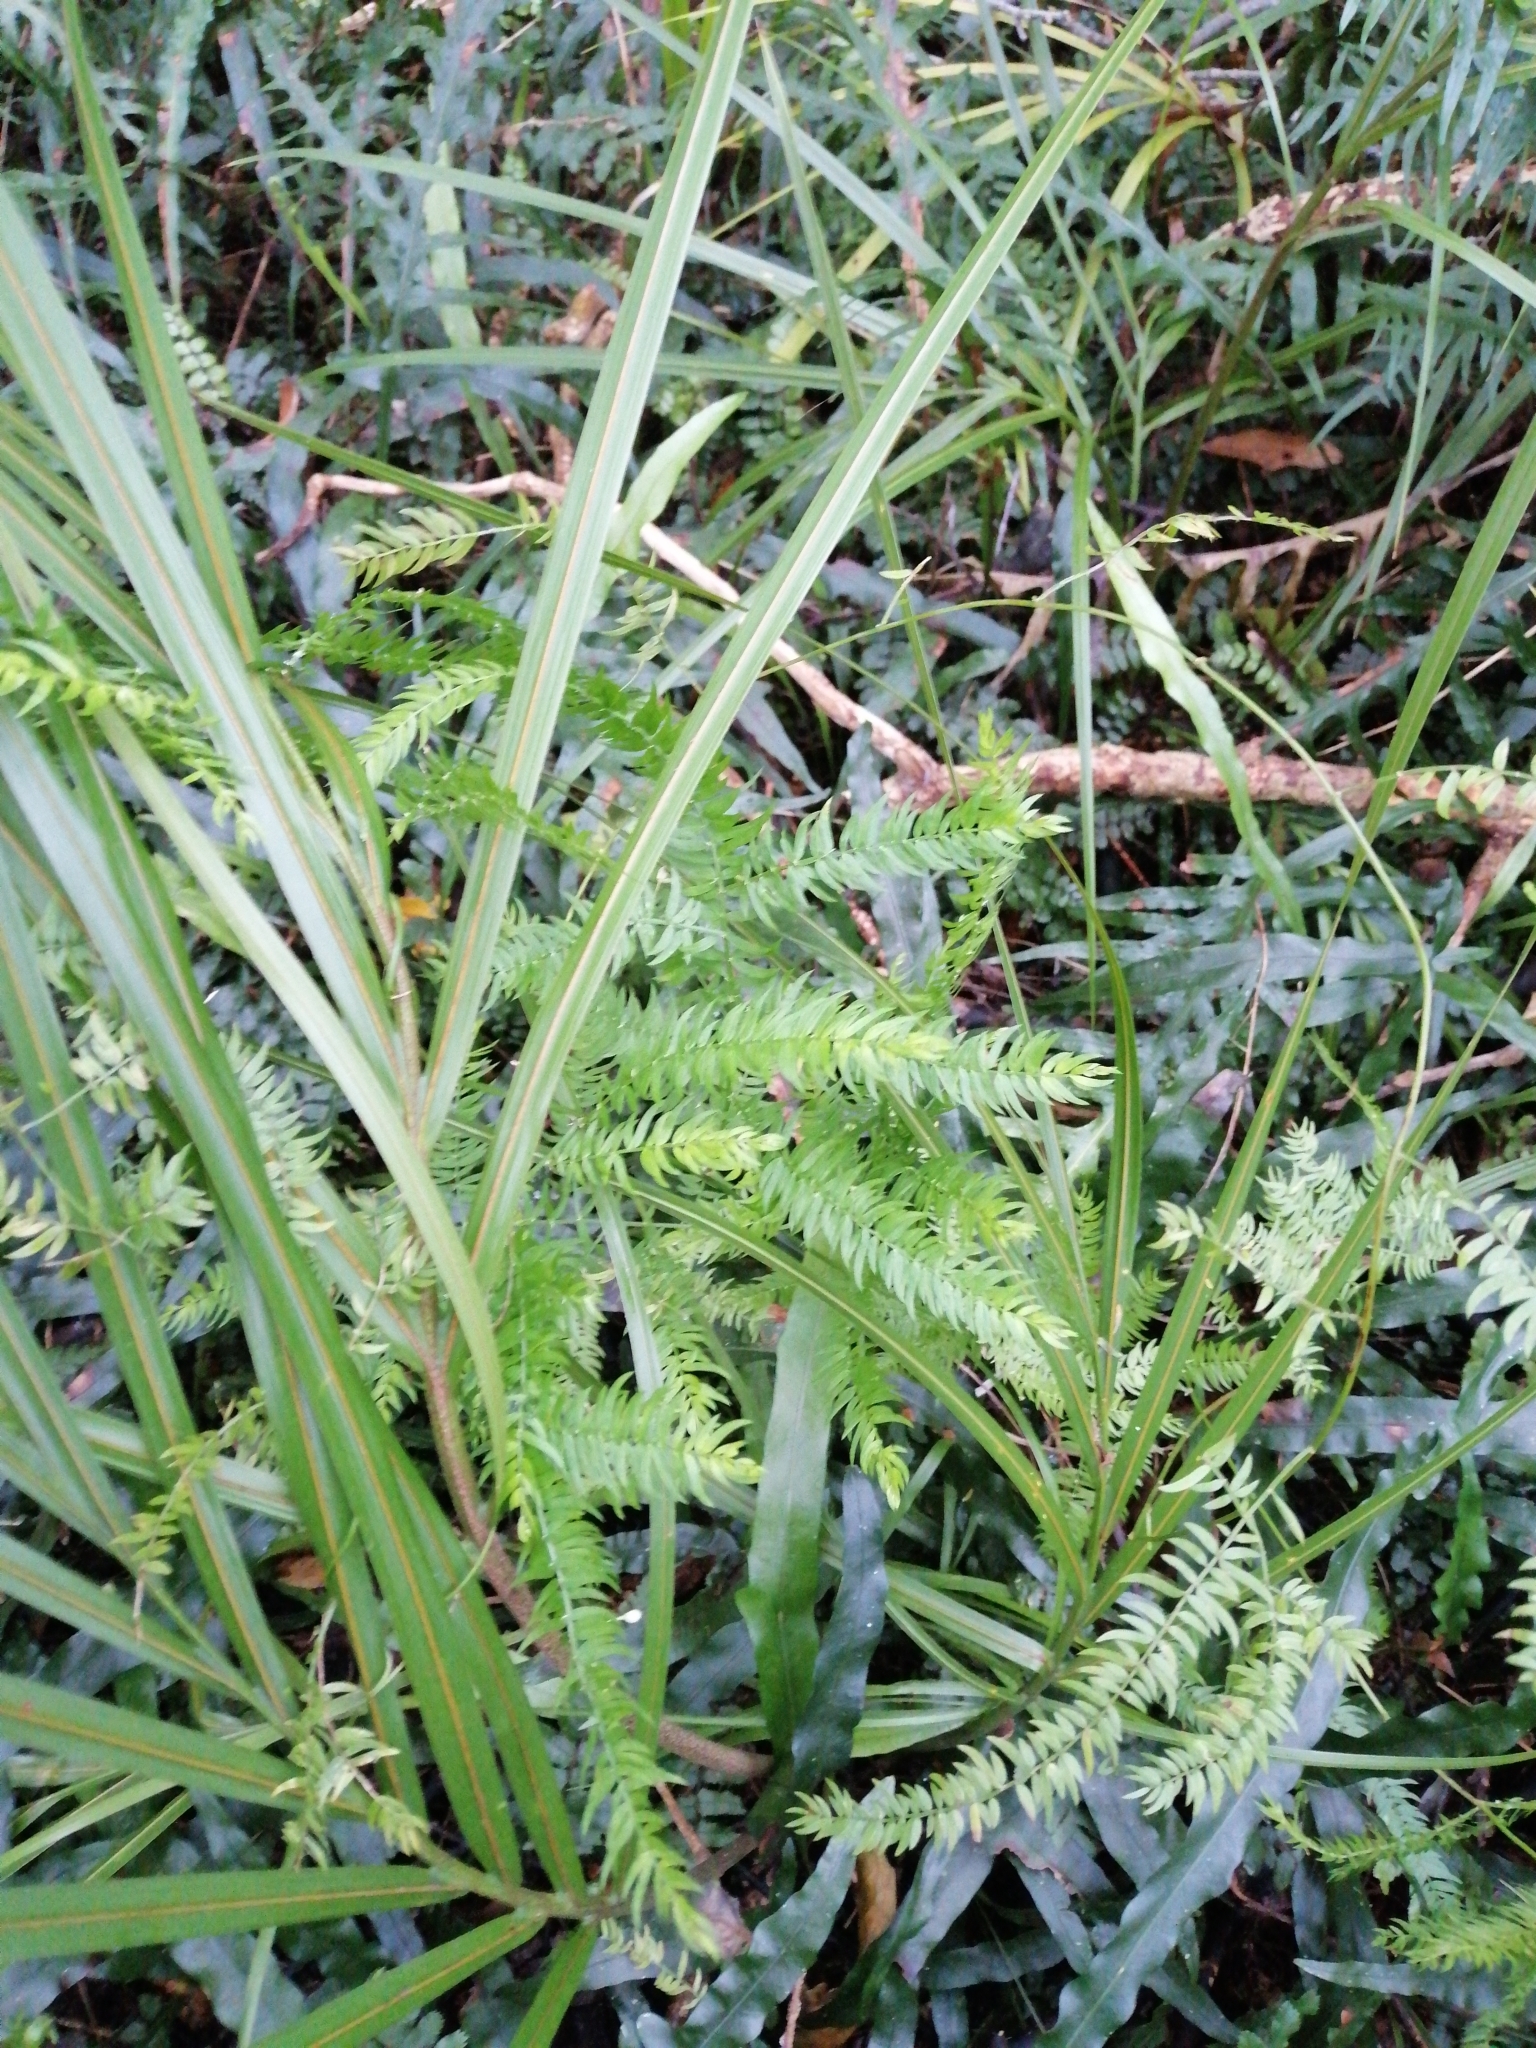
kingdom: Plantae
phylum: Tracheophyta
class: Liliopsida
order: Asparagales
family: Asparagaceae
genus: Asparagus
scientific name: Asparagus scandens
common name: Asparagus-fern
